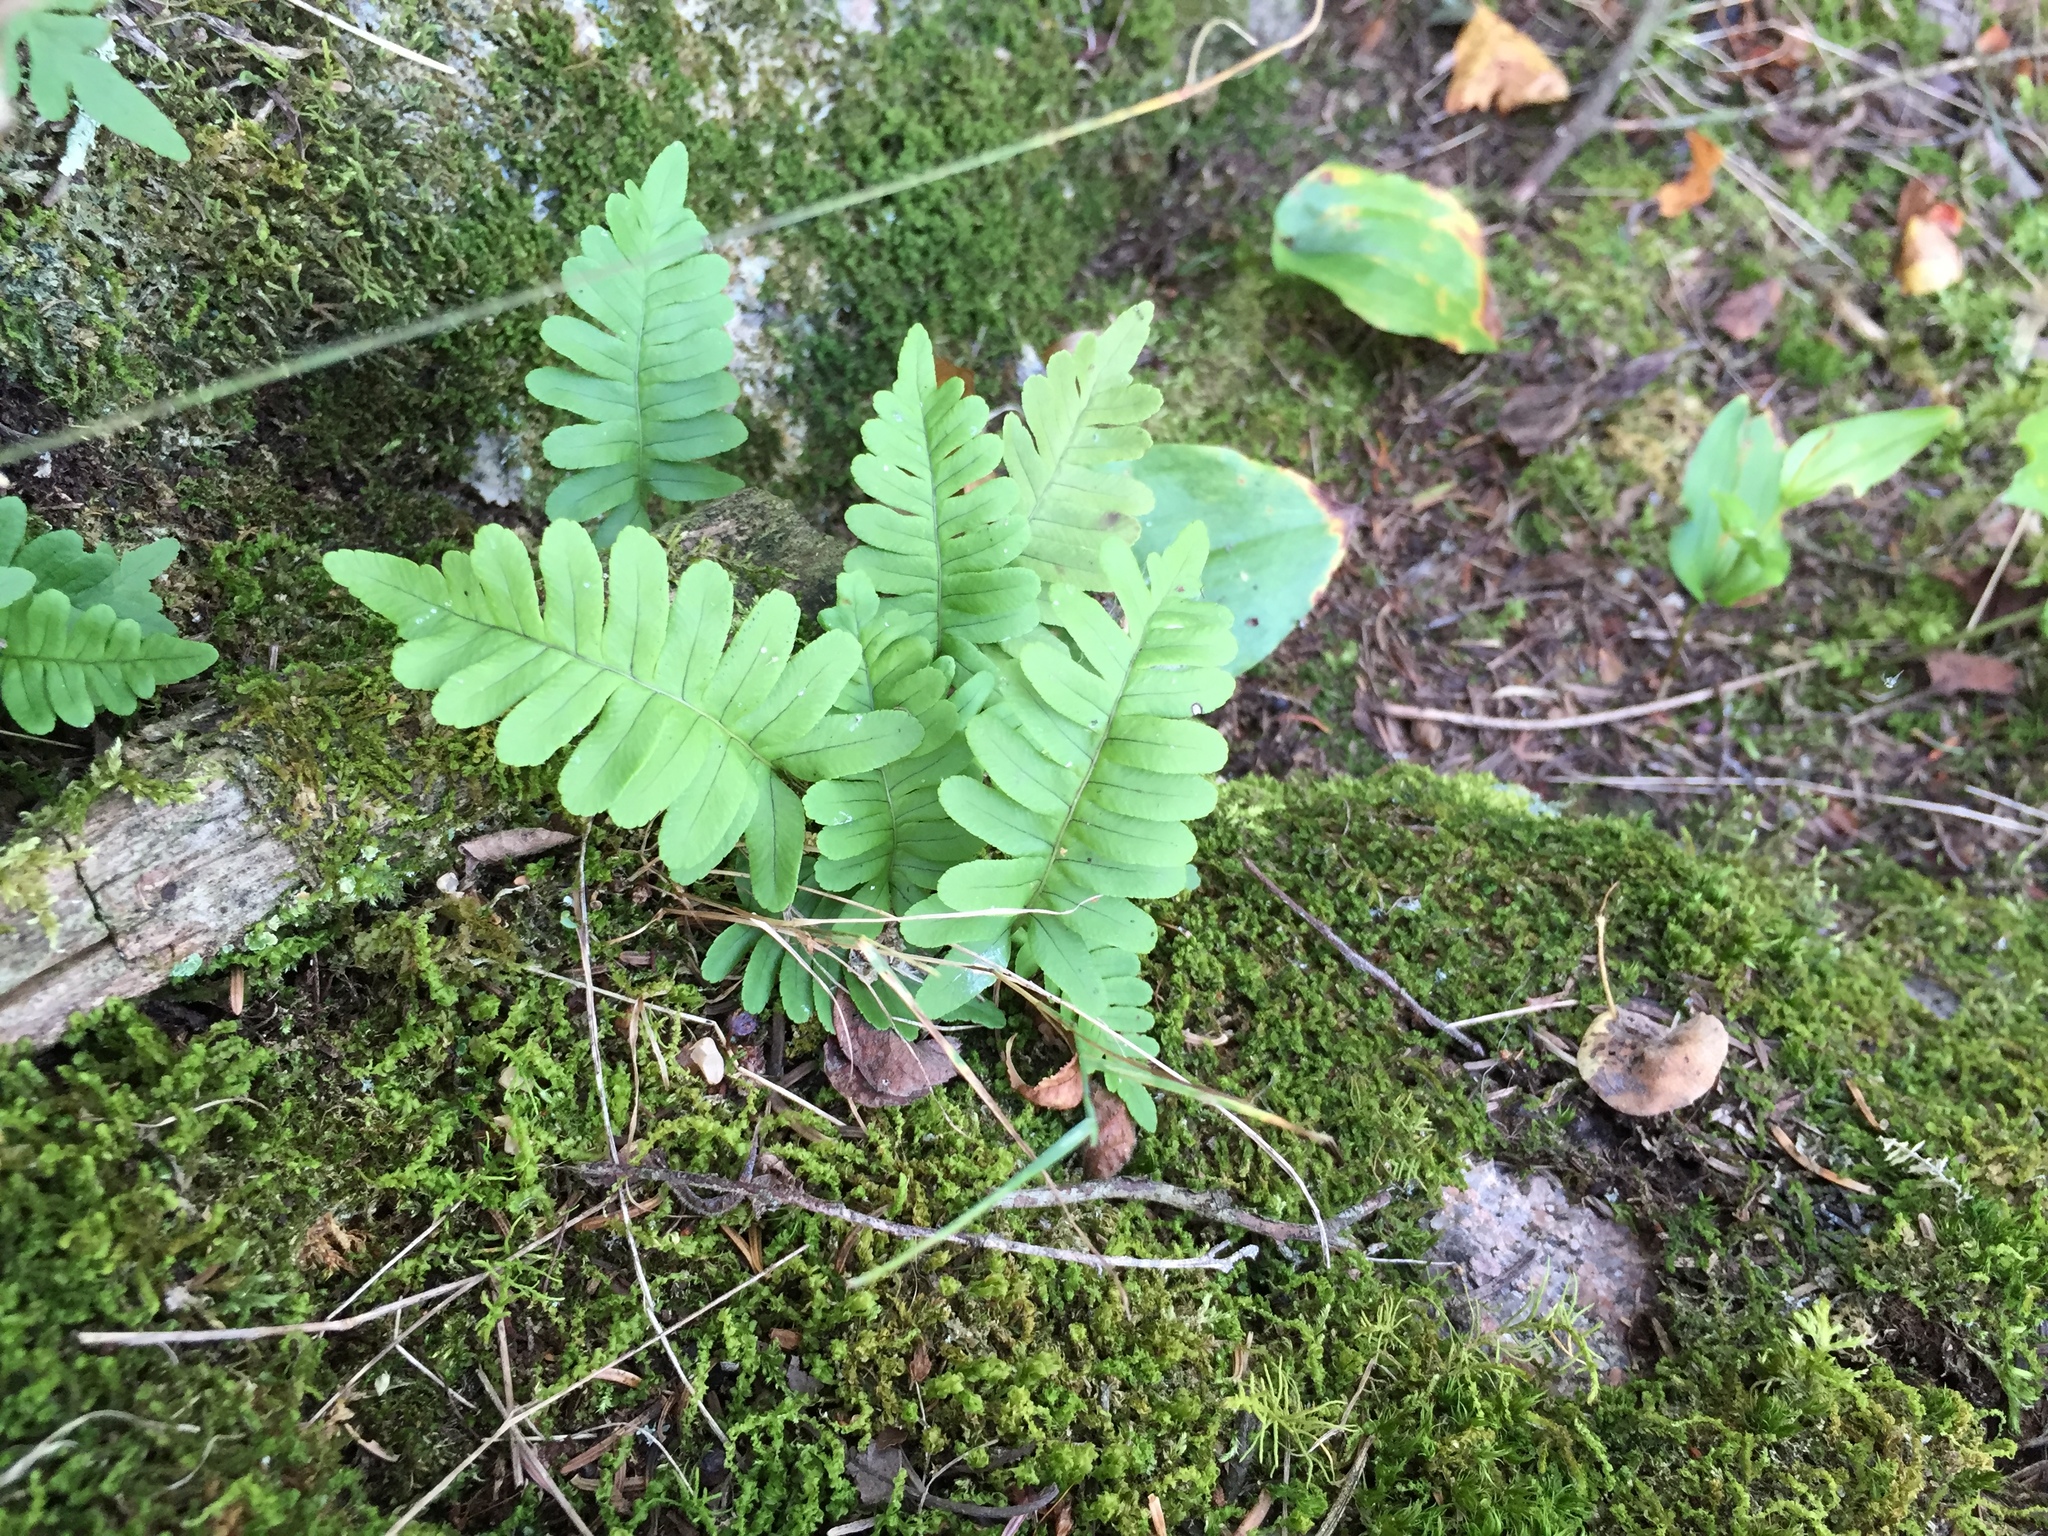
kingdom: Plantae
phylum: Tracheophyta
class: Polypodiopsida
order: Polypodiales
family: Polypodiaceae
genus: Polypodium
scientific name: Polypodium virginianum
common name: American wall fern
